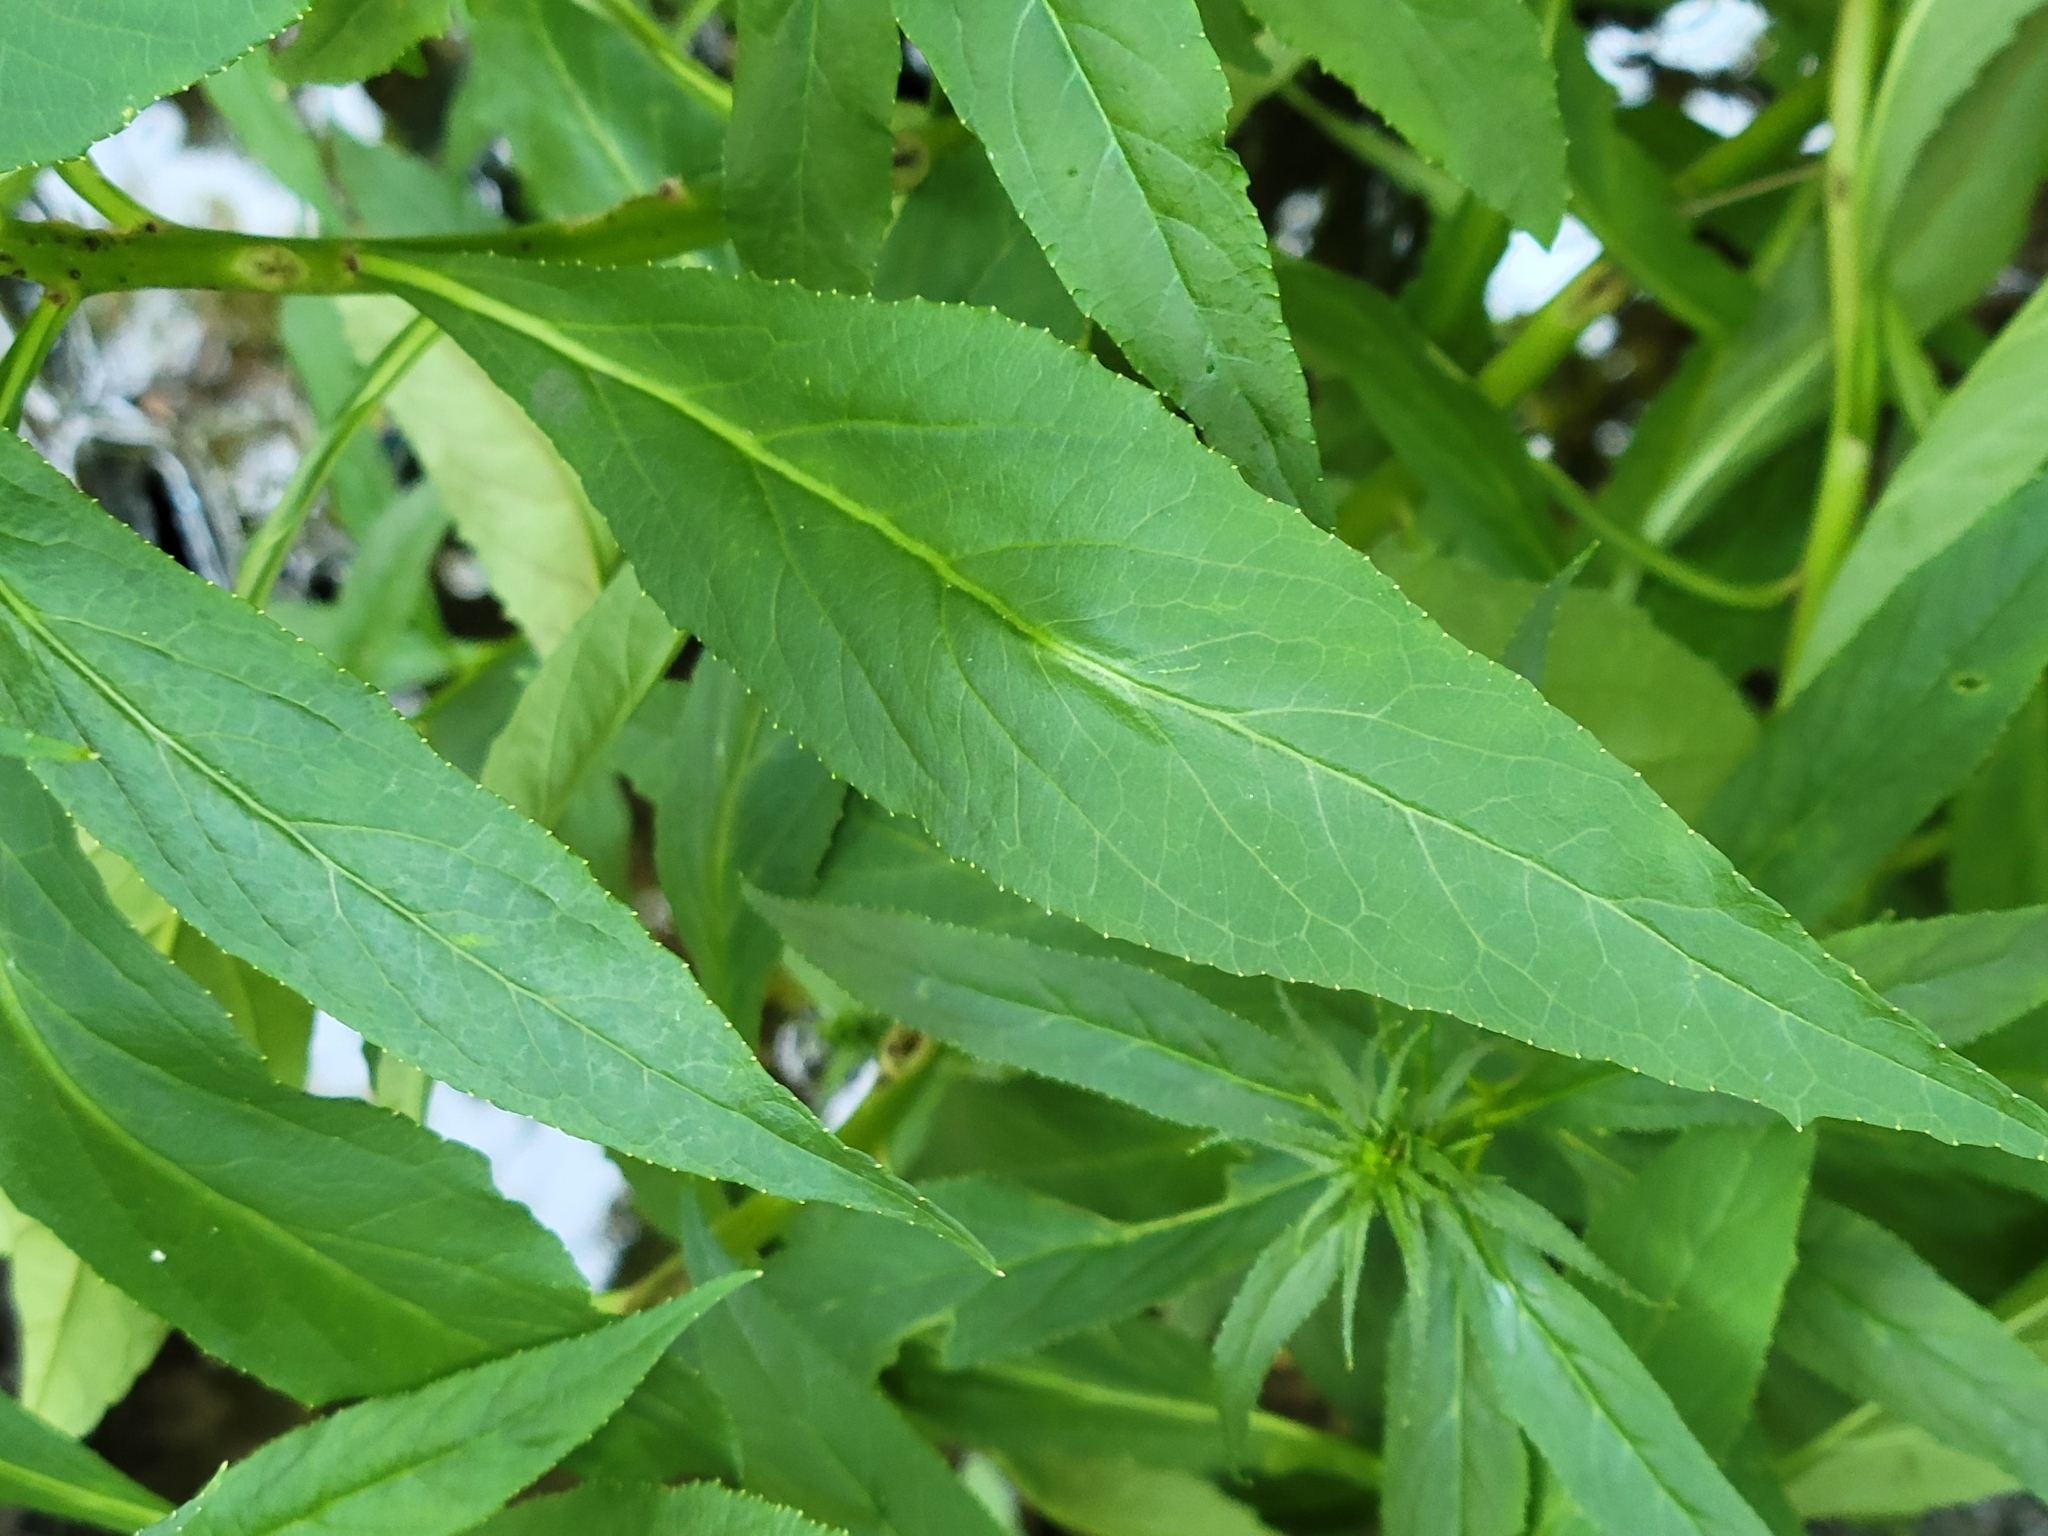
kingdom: Plantae
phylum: Tracheophyta
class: Magnoliopsida
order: Asterales
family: Campanulaceae
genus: Lobelia
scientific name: Lobelia cardinalis
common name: Cardinal flower
